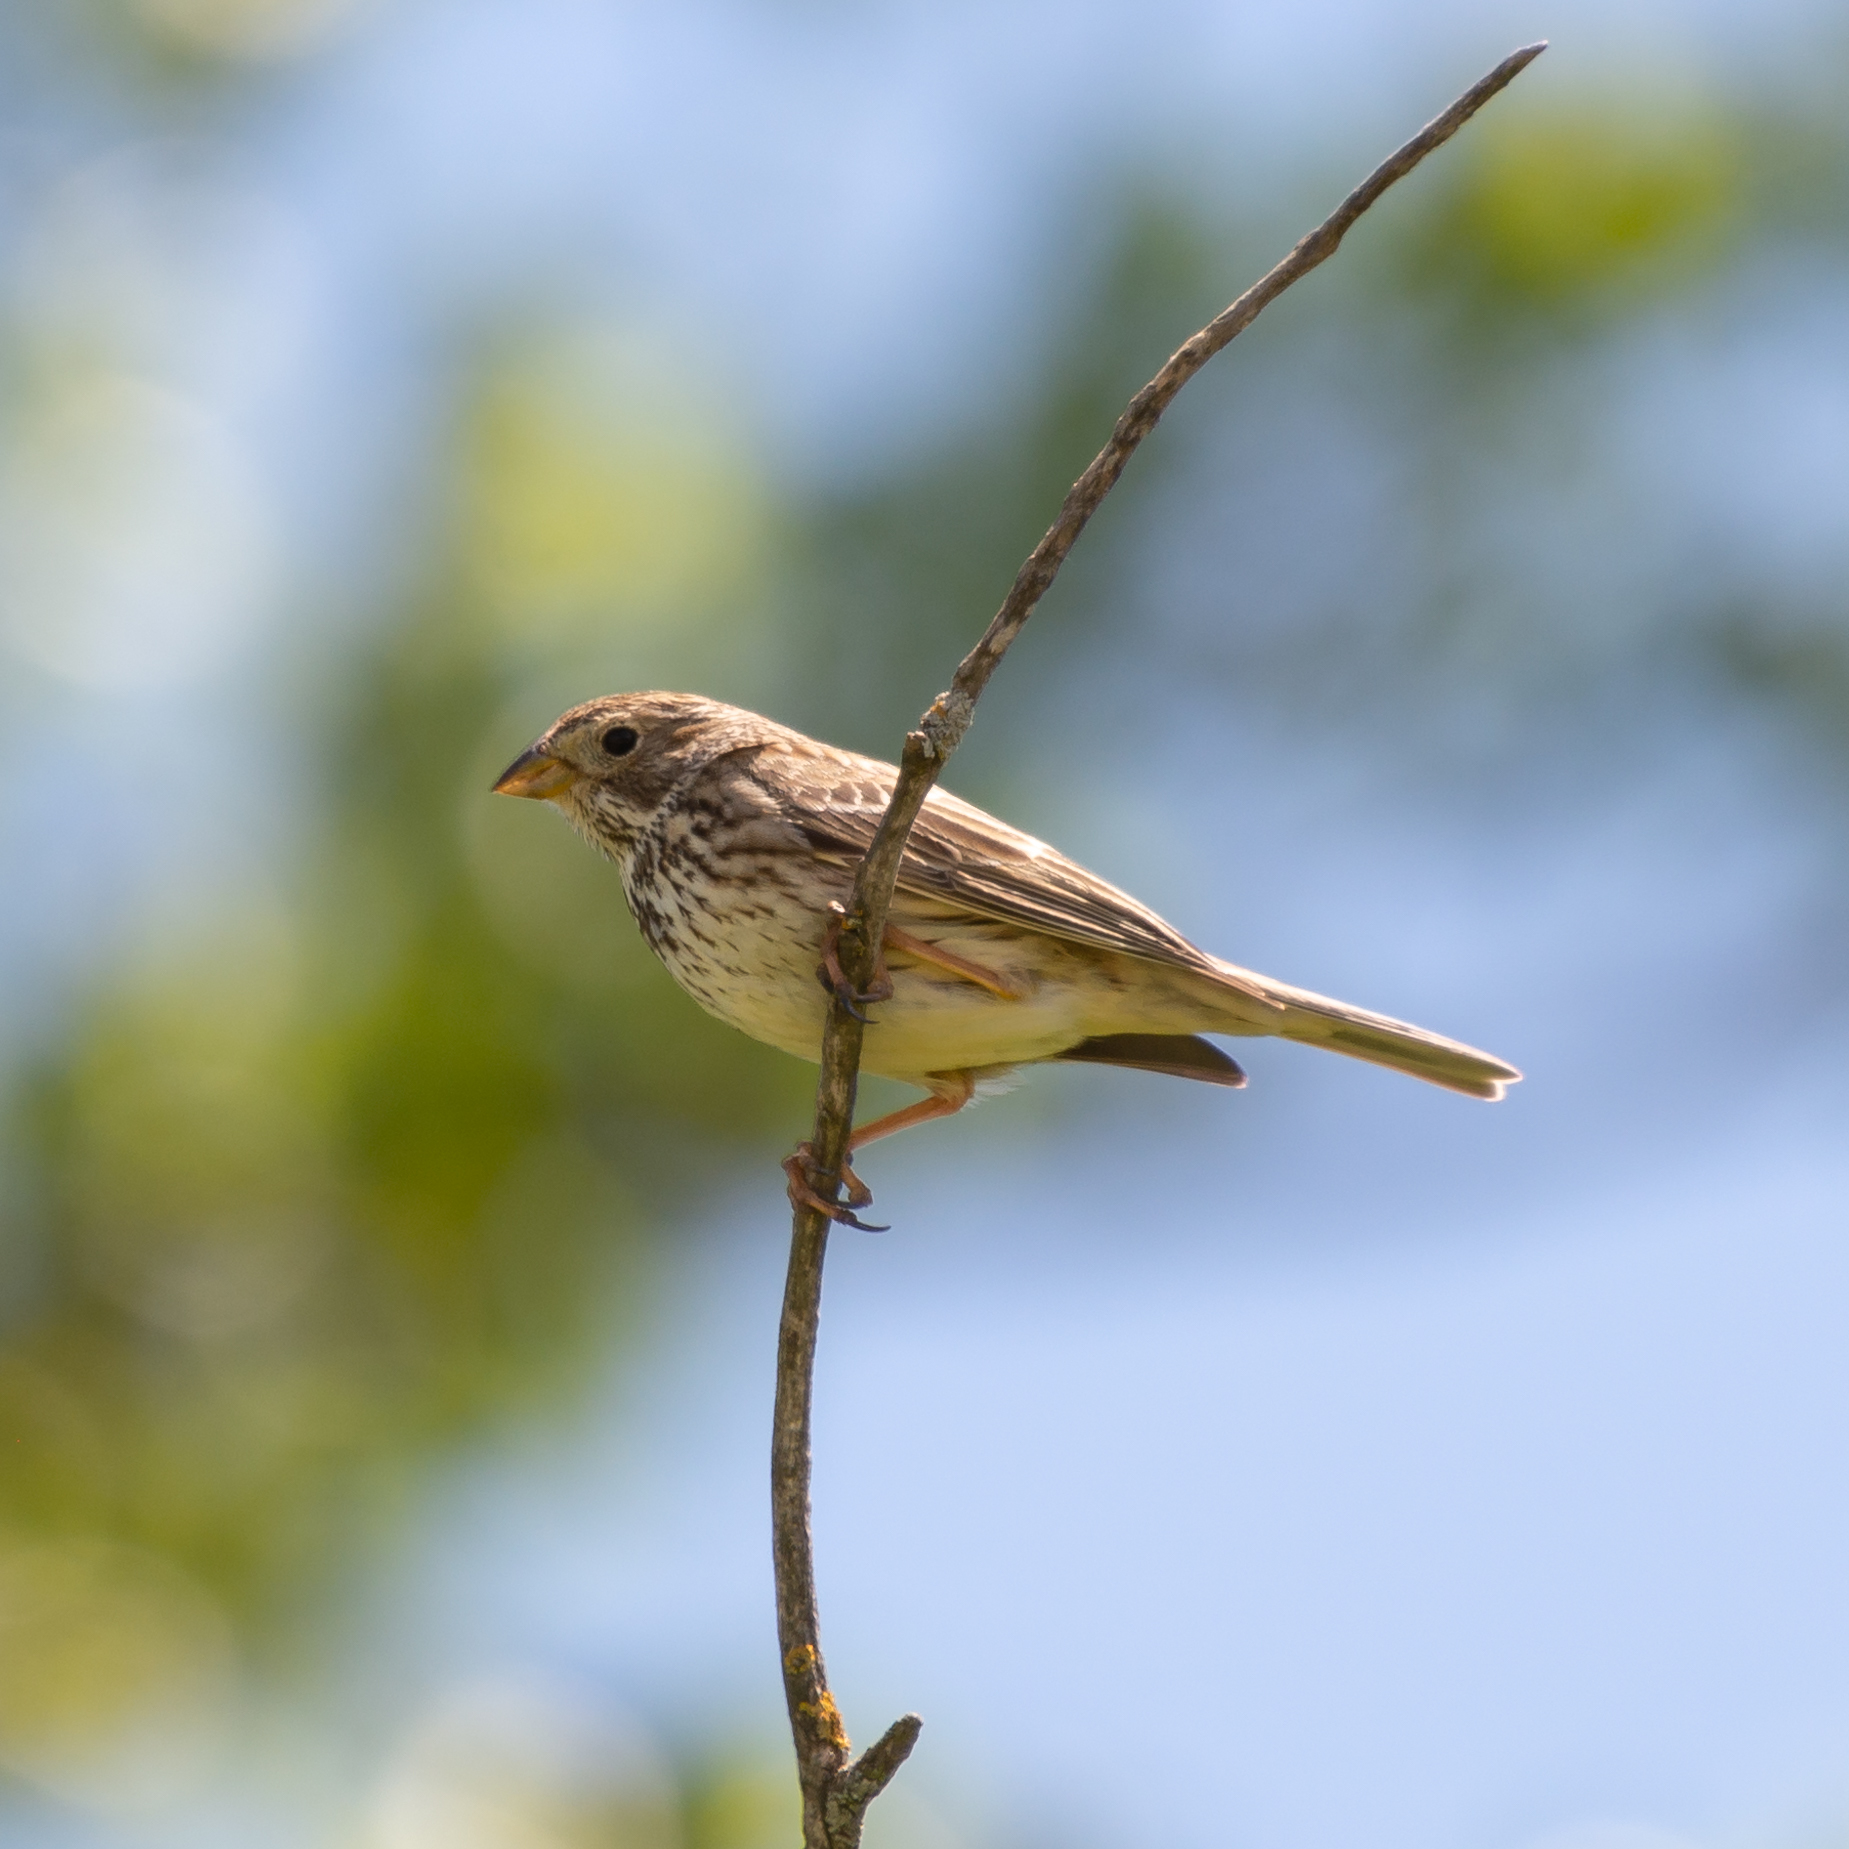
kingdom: Animalia
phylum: Chordata
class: Aves
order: Passeriformes
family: Emberizidae
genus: Emberiza
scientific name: Emberiza calandra
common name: Corn bunting
